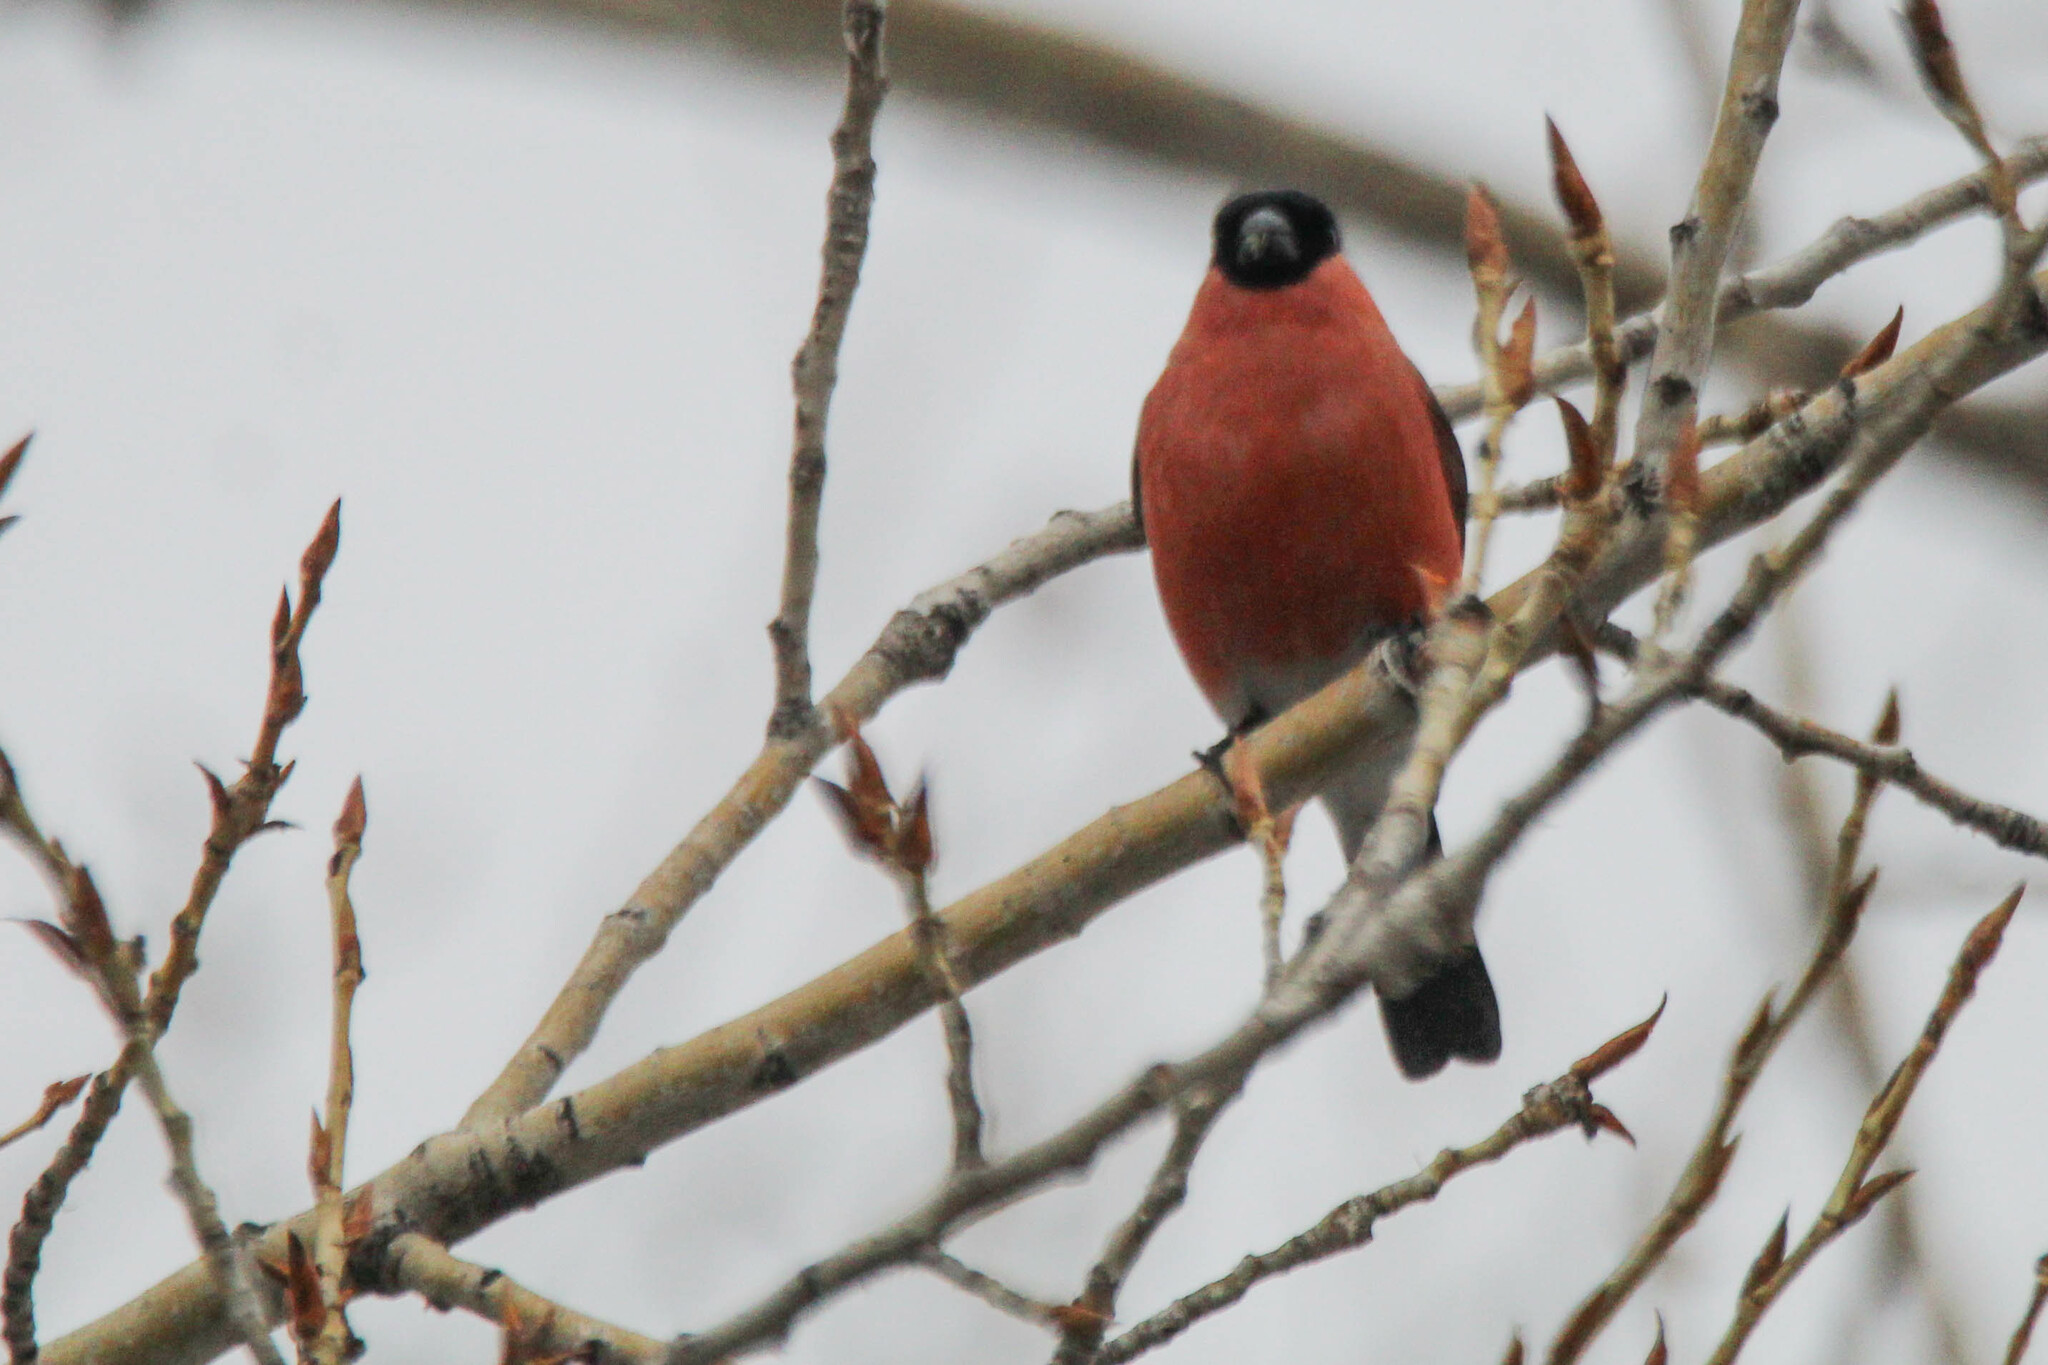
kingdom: Animalia
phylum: Chordata
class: Aves
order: Passeriformes
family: Fringillidae
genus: Pyrrhula
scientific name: Pyrrhula pyrrhula
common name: Eurasian bullfinch
